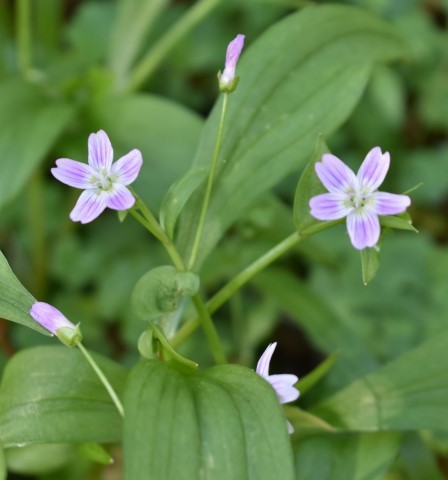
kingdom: Plantae
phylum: Tracheophyta
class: Magnoliopsida
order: Caryophyllales
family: Montiaceae
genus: Claytonia
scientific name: Claytonia sibirica
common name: Pink purslane
